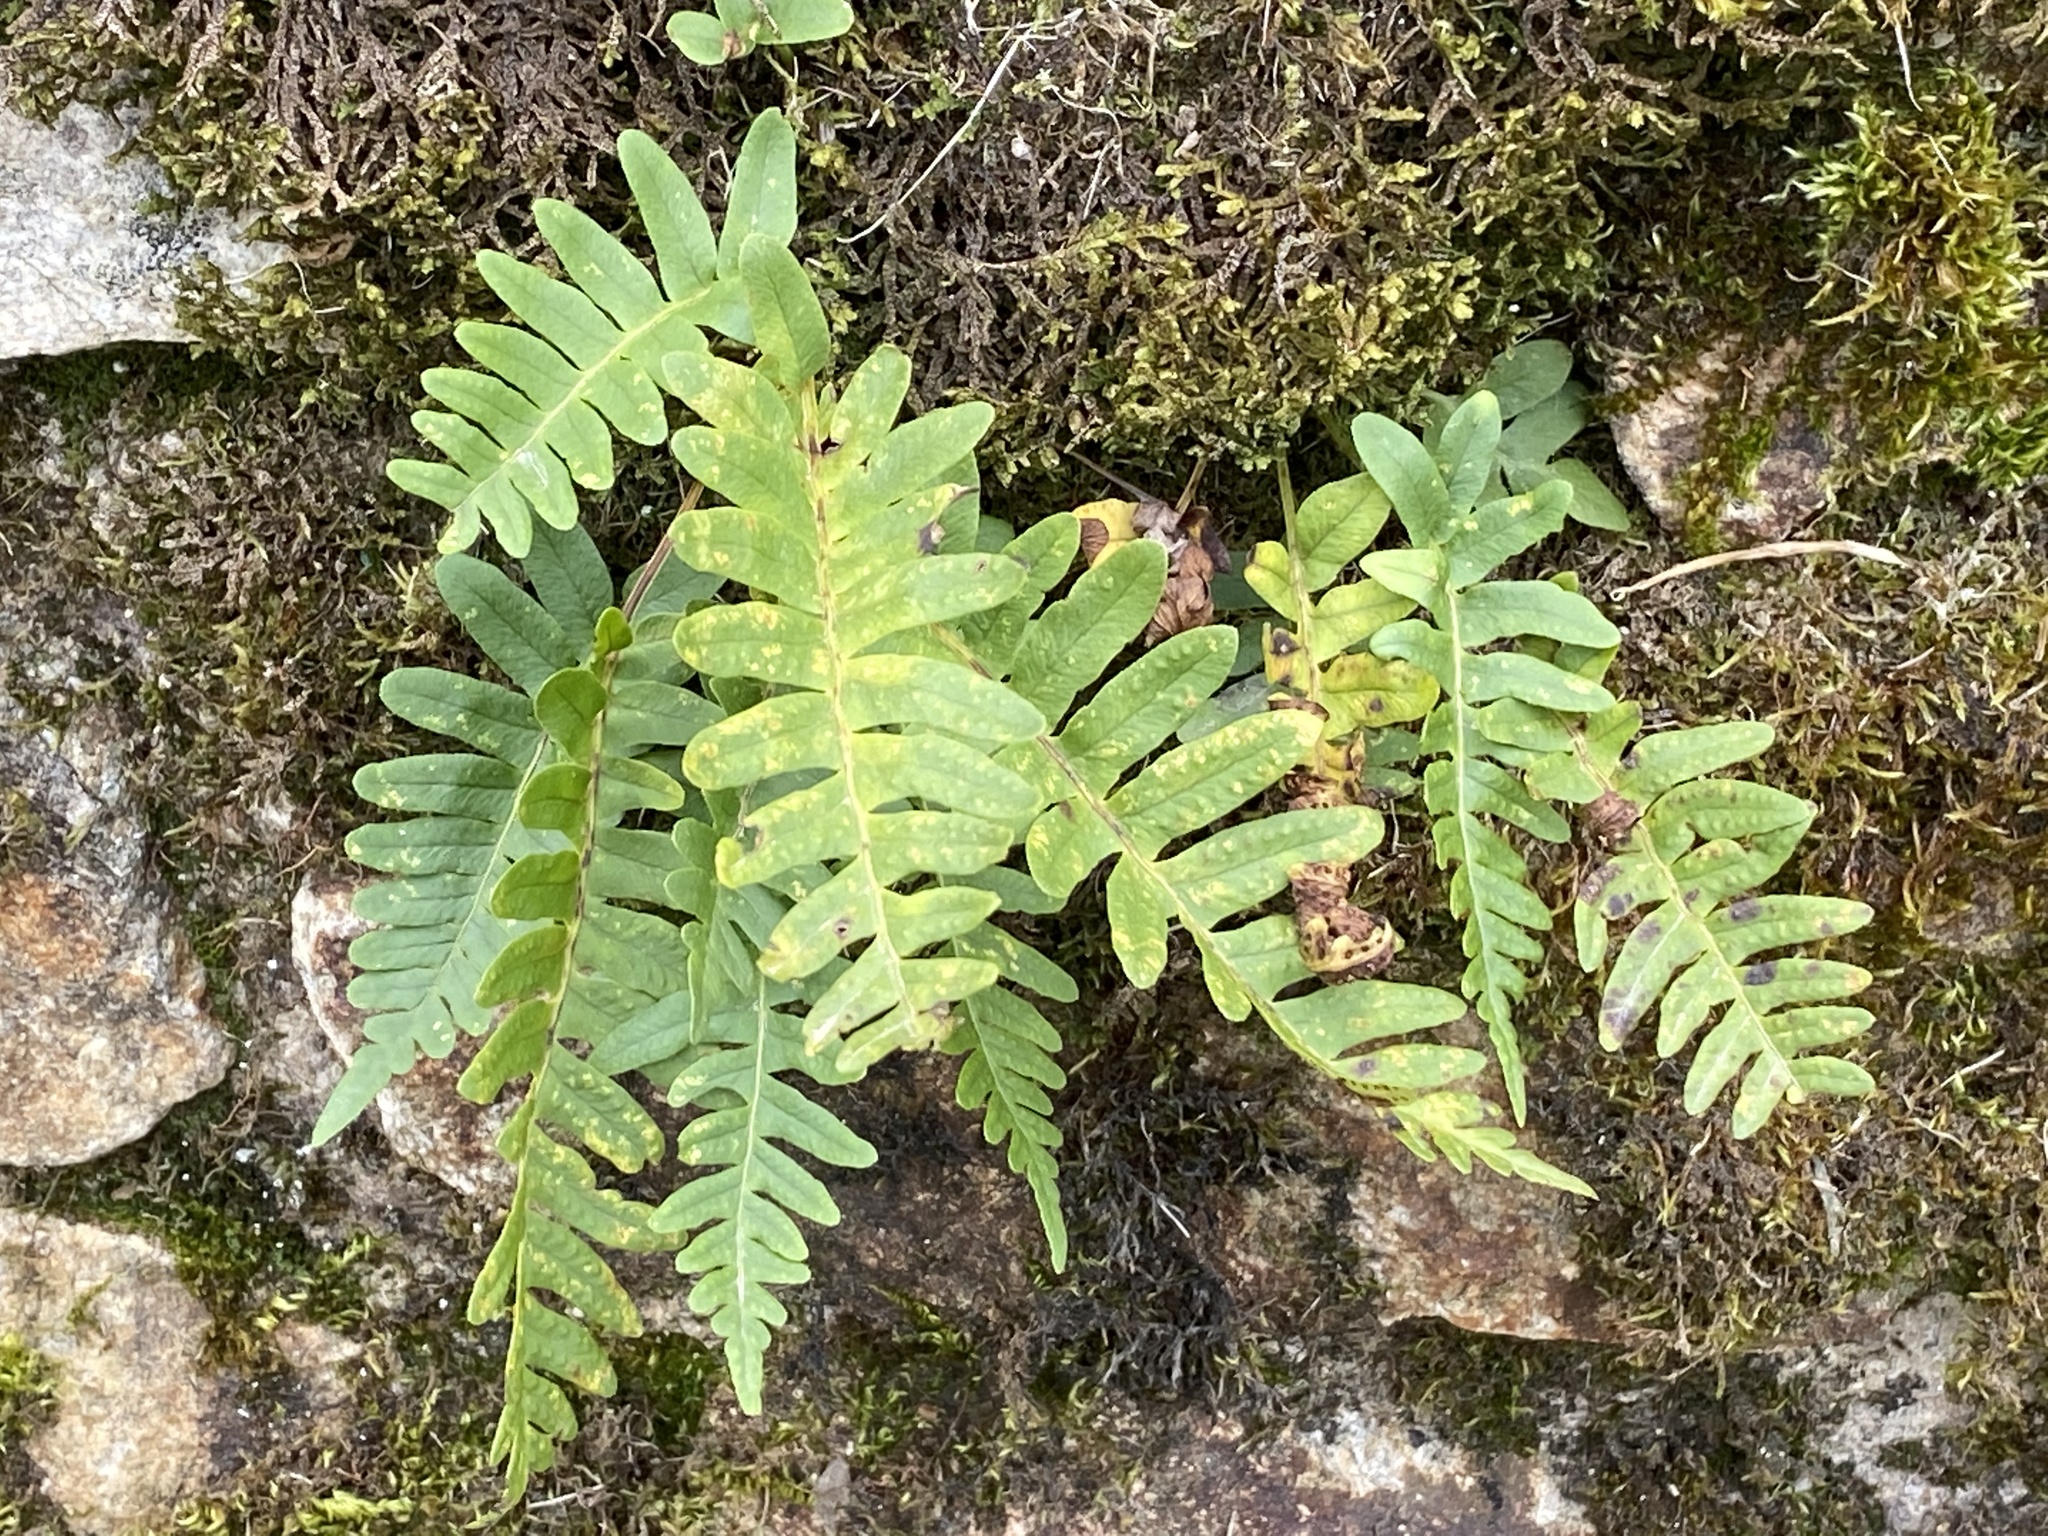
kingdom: Plantae
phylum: Tracheophyta
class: Polypodiopsida
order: Polypodiales
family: Polypodiaceae
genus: Polypodium
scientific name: Polypodium vulgare
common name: Common polypody
